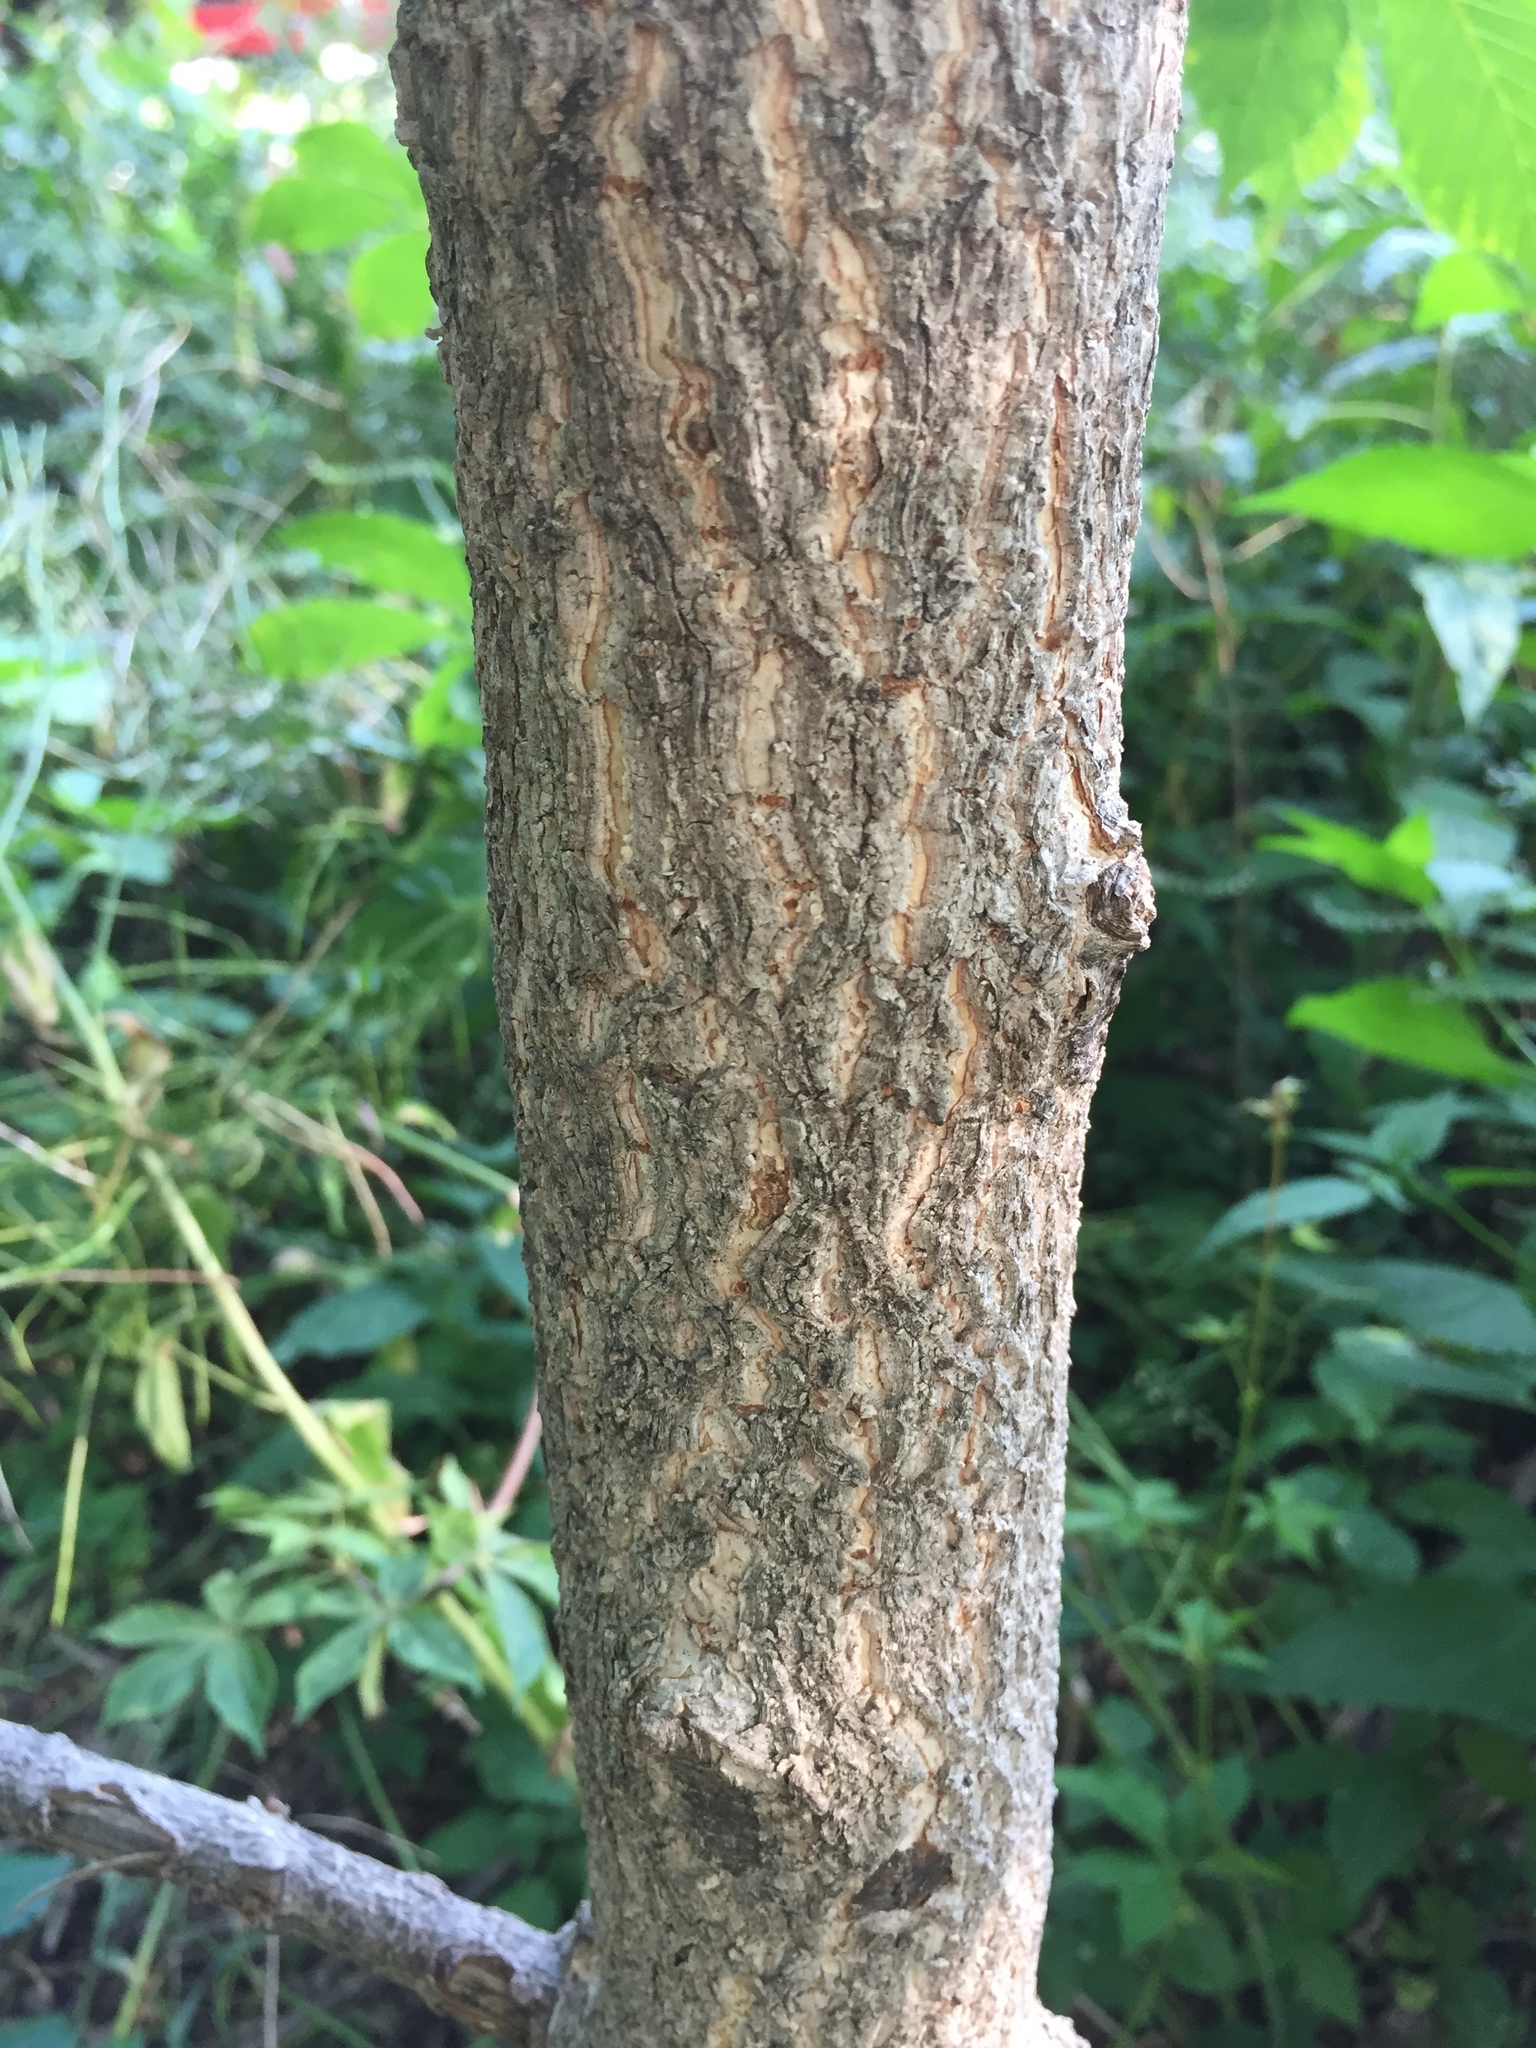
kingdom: Plantae
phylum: Tracheophyta
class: Magnoliopsida
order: Sapindales
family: Sapindaceae
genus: Aesculus
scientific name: Aesculus glabra
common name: Ohio buckeye
